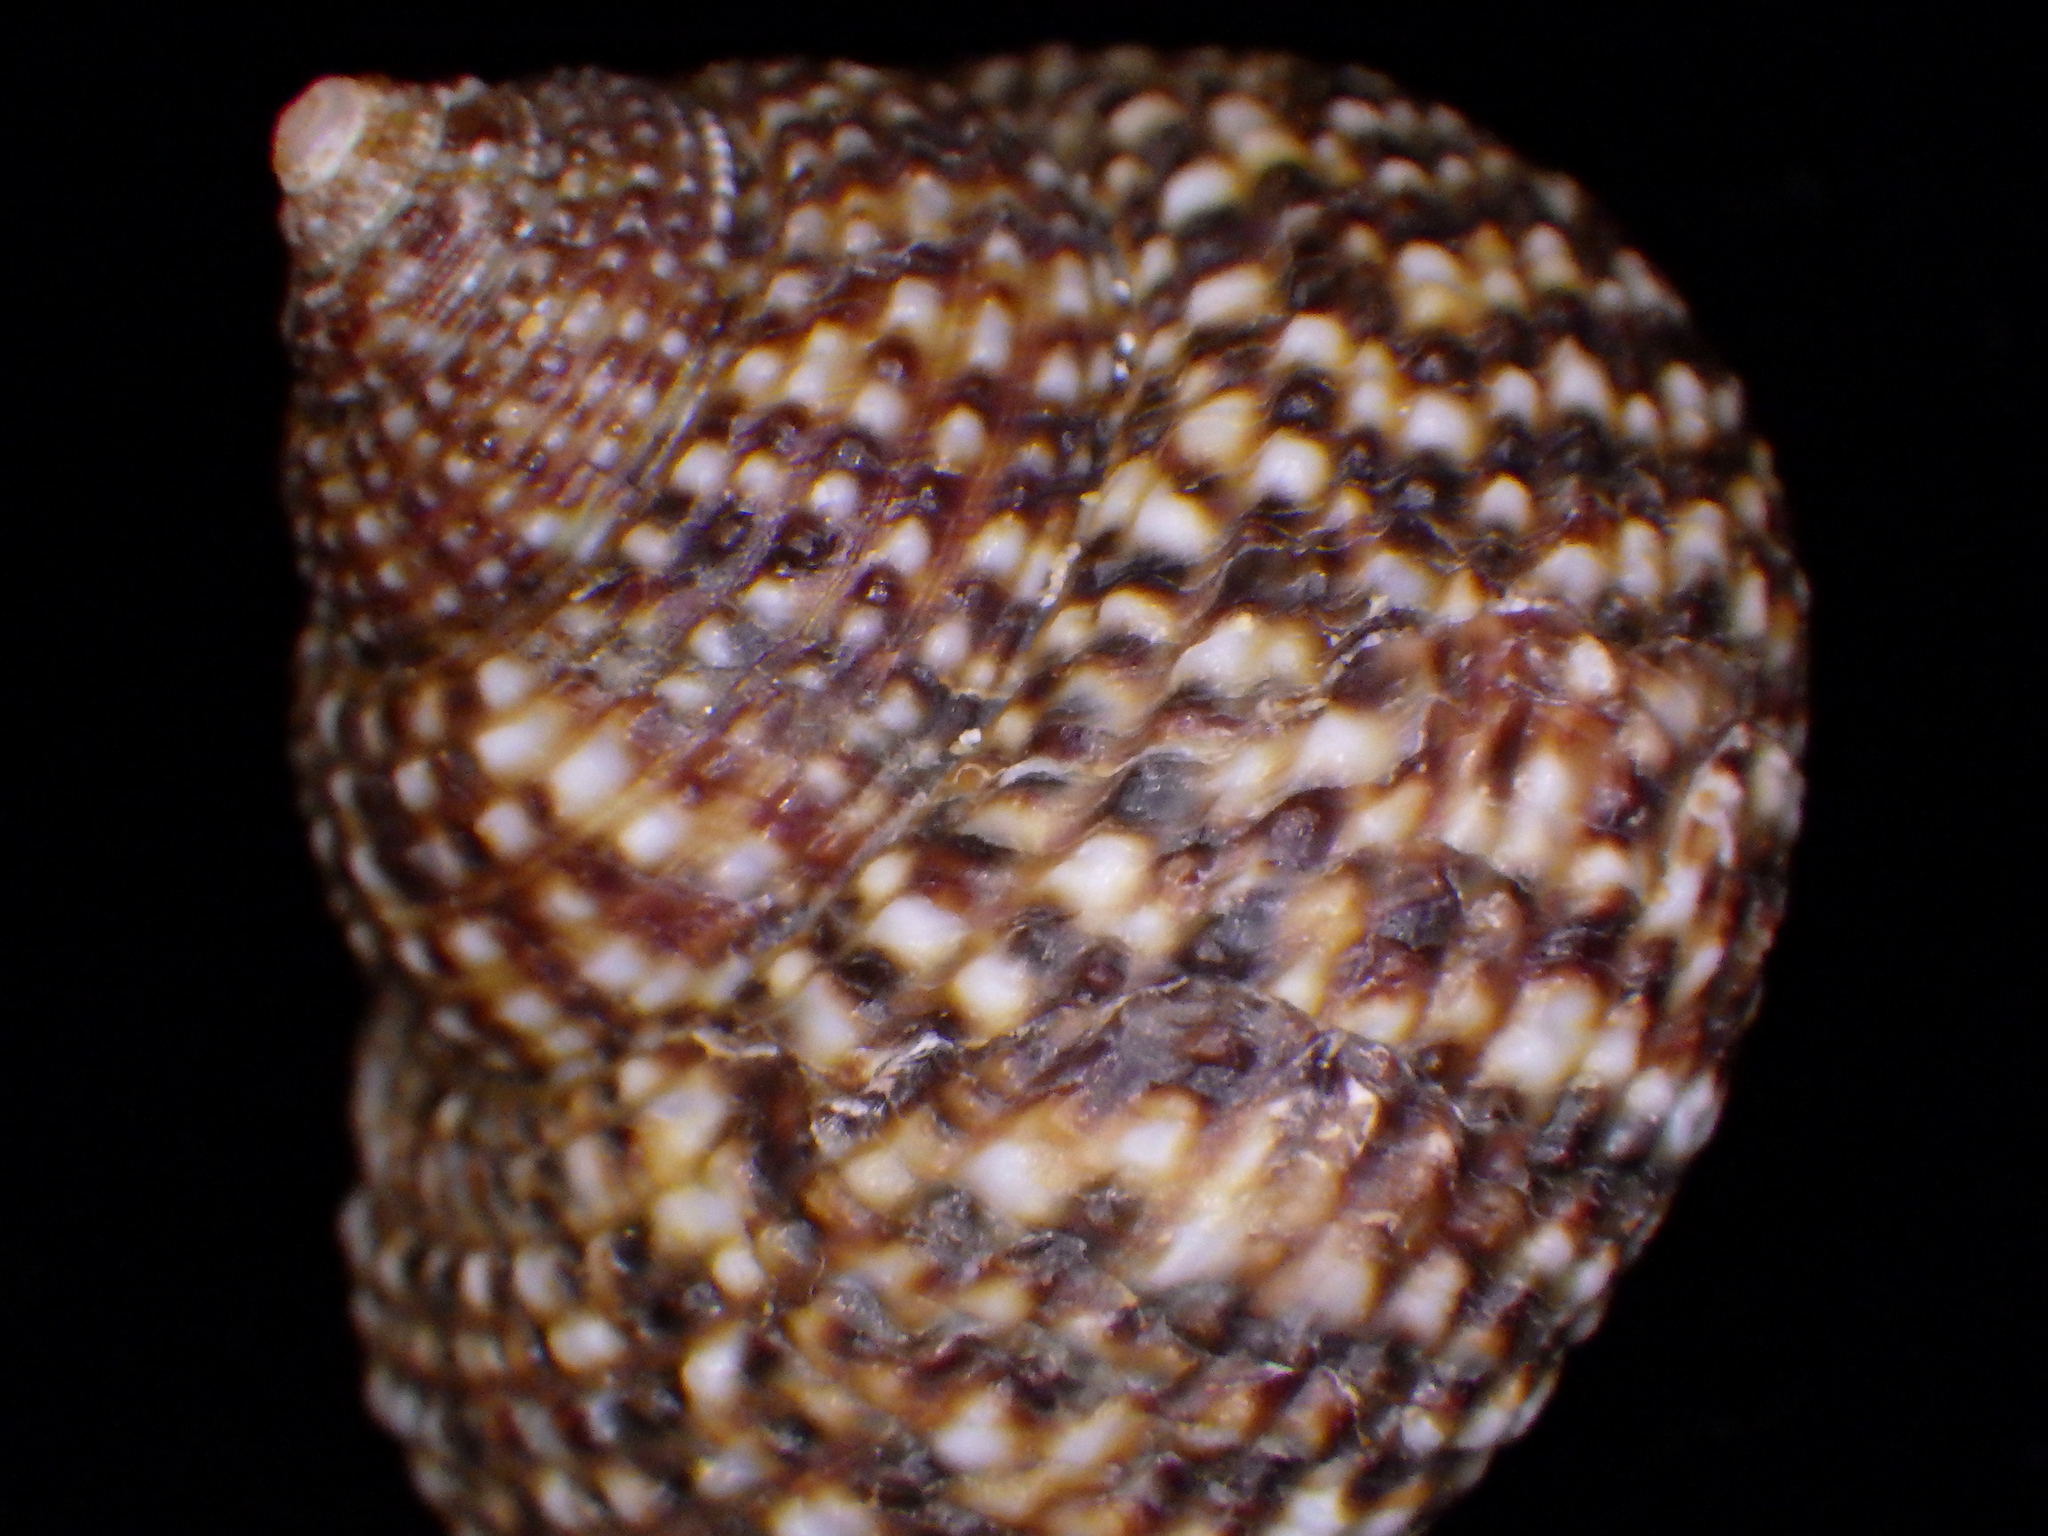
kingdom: Animalia
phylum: Mollusca
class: Gastropoda
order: Trochida
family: Calliostomatidae
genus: Maurea
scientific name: Maurea punctulata
